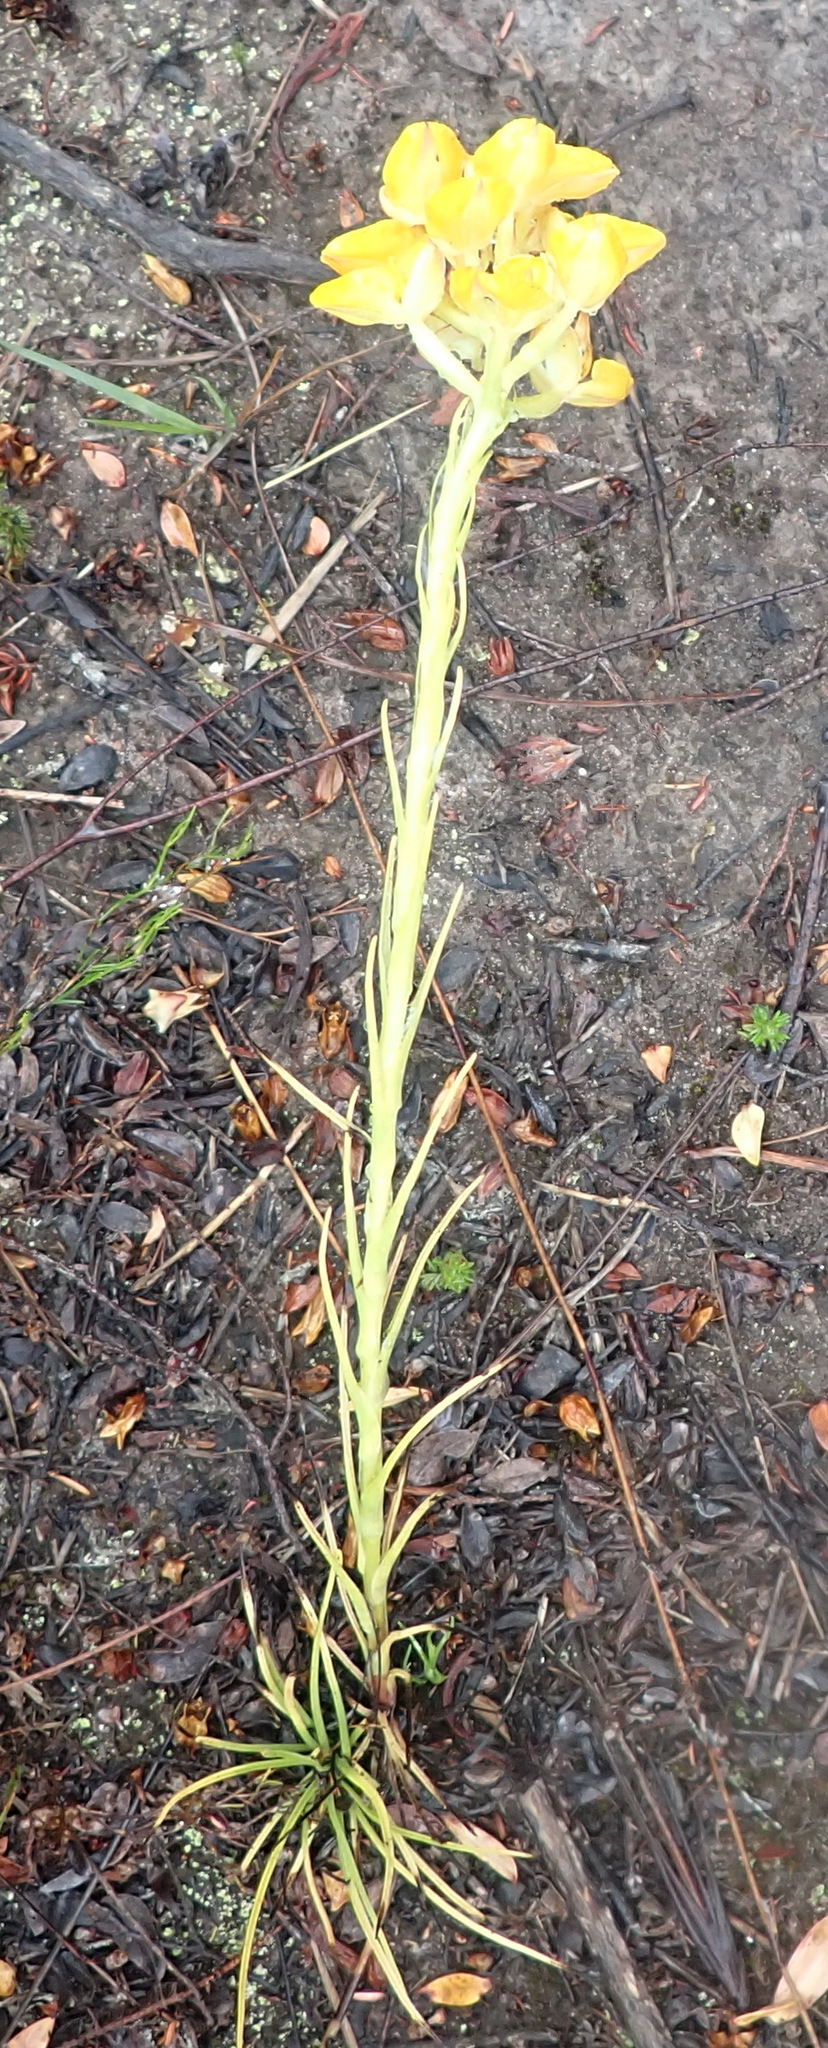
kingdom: Plantae
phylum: Tracheophyta
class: Liliopsida
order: Asparagales
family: Orchidaceae
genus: Ceratandra
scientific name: Ceratandra grandiflora
